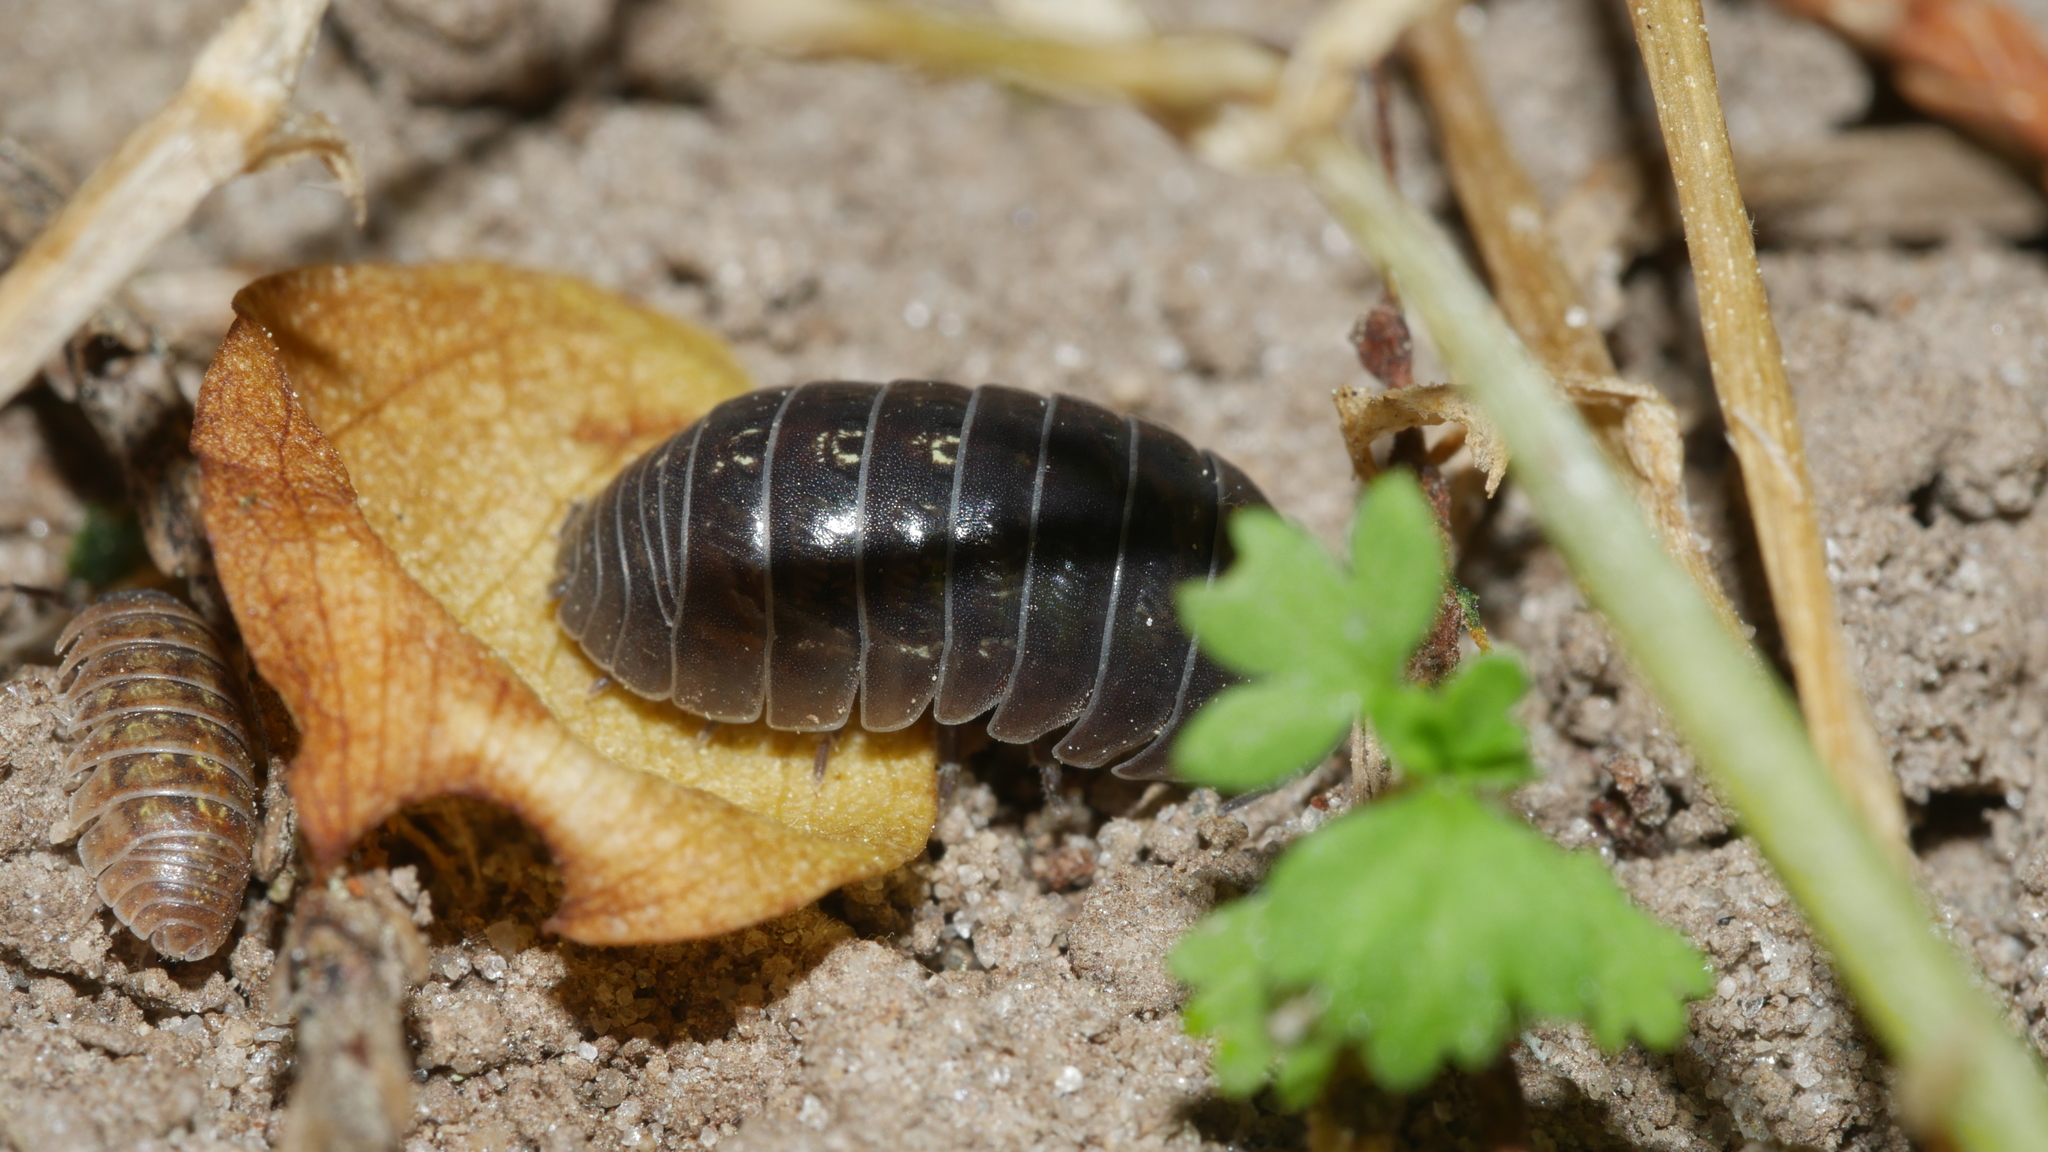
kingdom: Animalia
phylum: Arthropoda
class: Malacostraca
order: Isopoda
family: Armadillidiidae
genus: Armadillidium
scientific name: Armadillidium vulgare
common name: Common pill woodlouse
